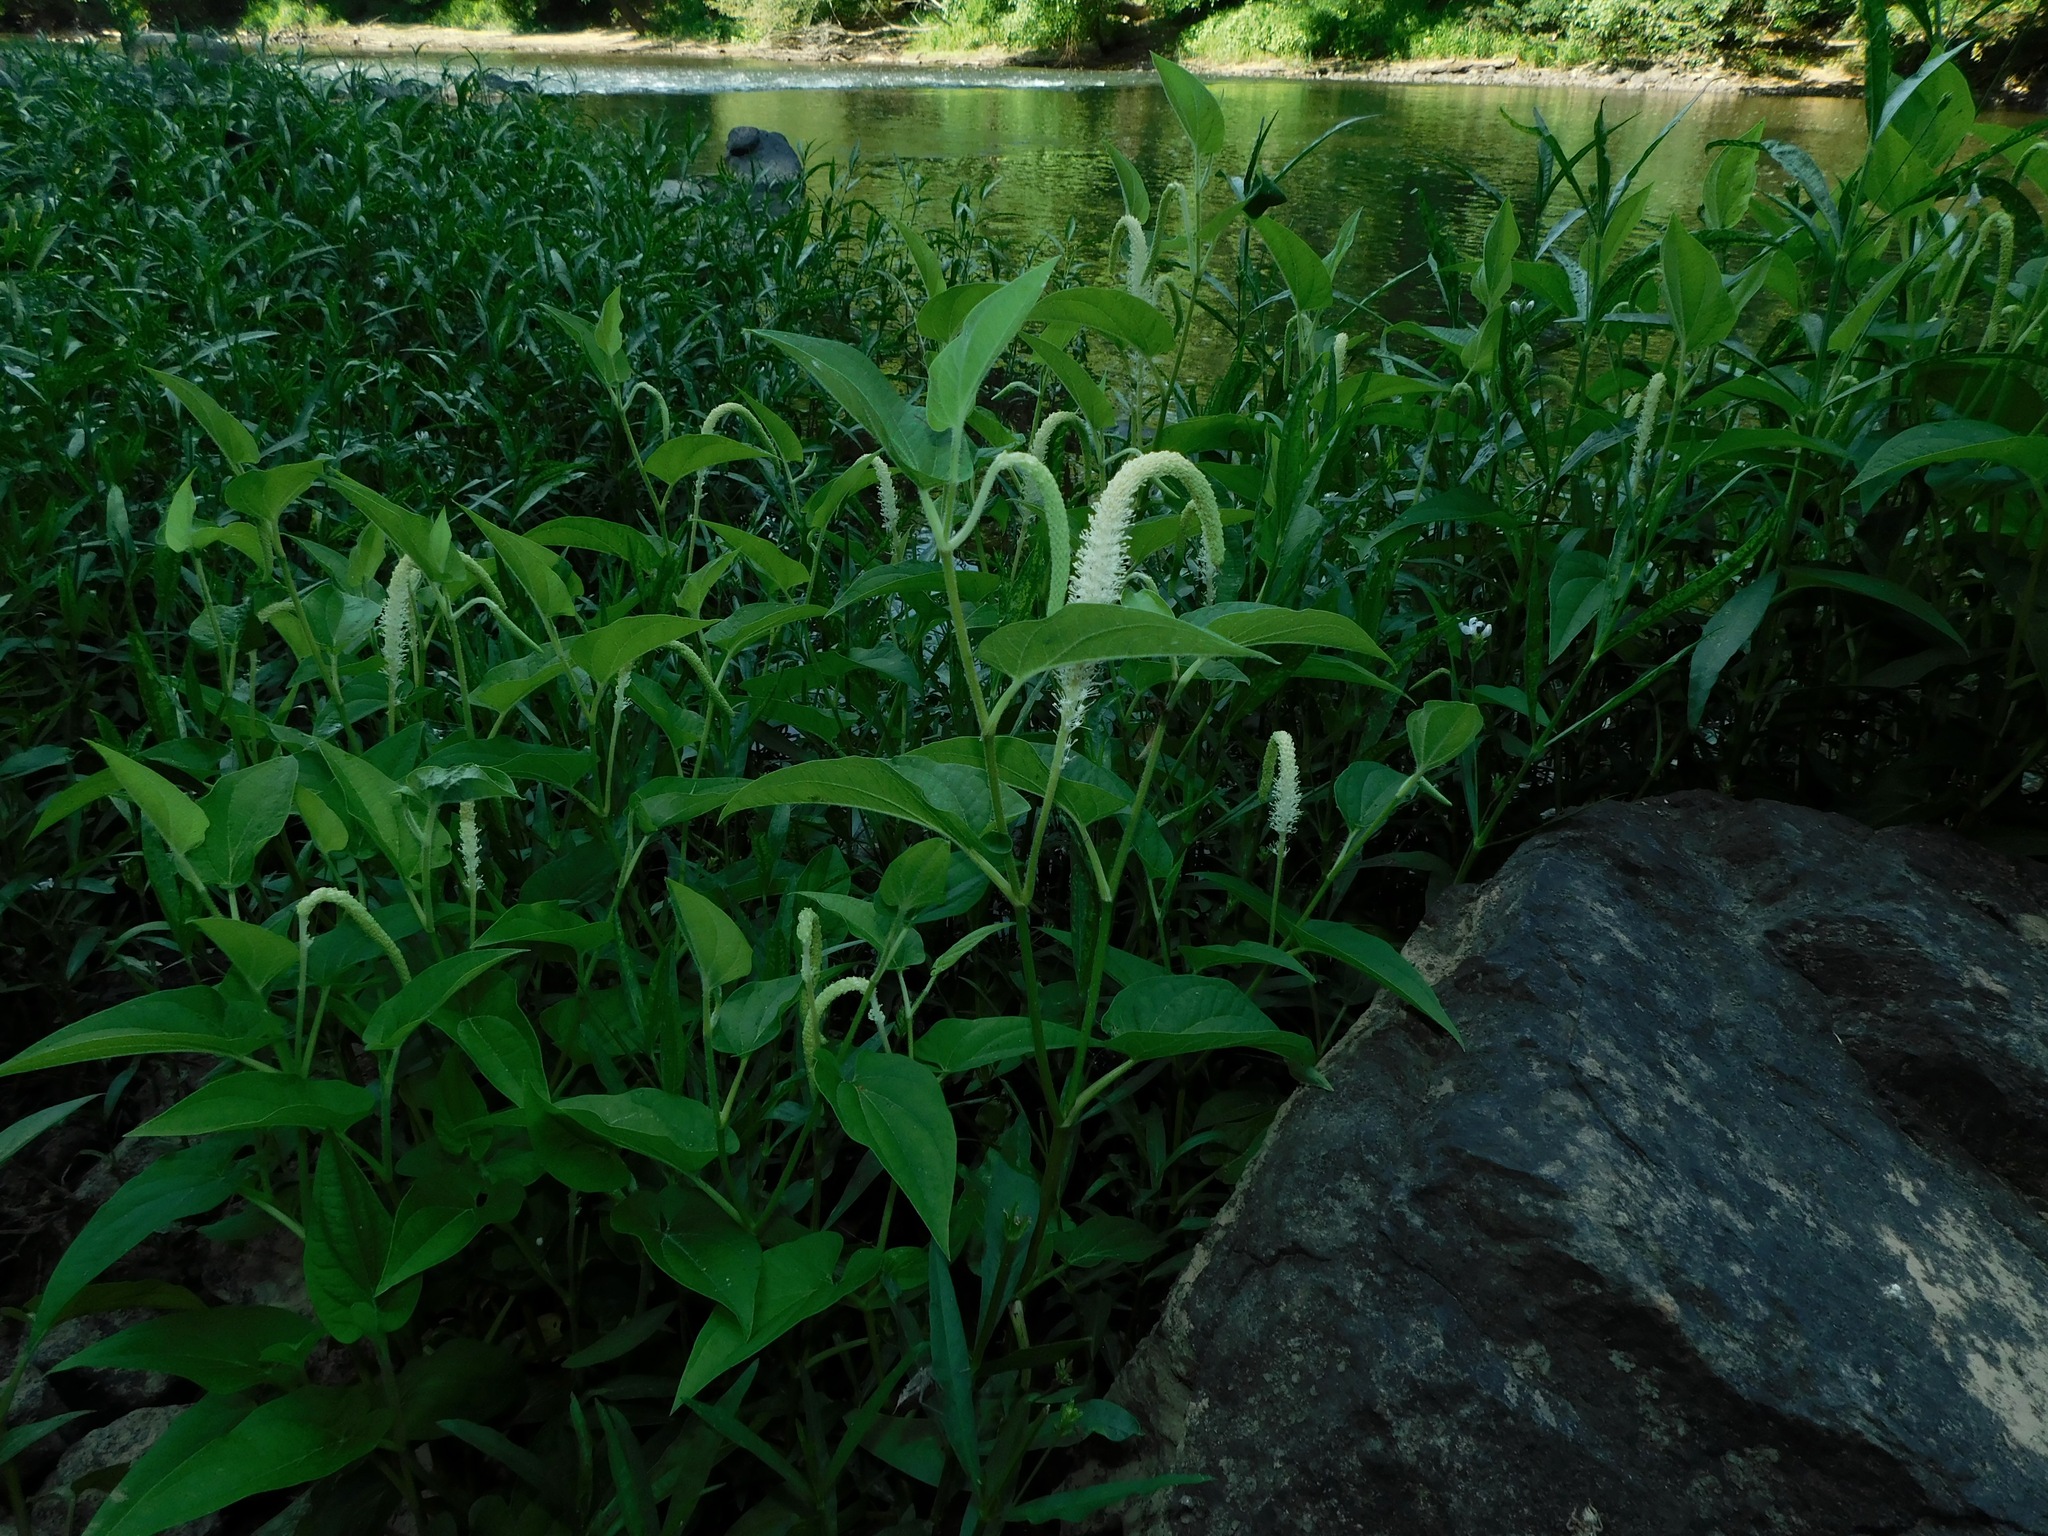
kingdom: Plantae
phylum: Tracheophyta
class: Magnoliopsida
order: Piperales
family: Saururaceae
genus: Saururus
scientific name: Saururus cernuus
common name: Lizard's-tail
